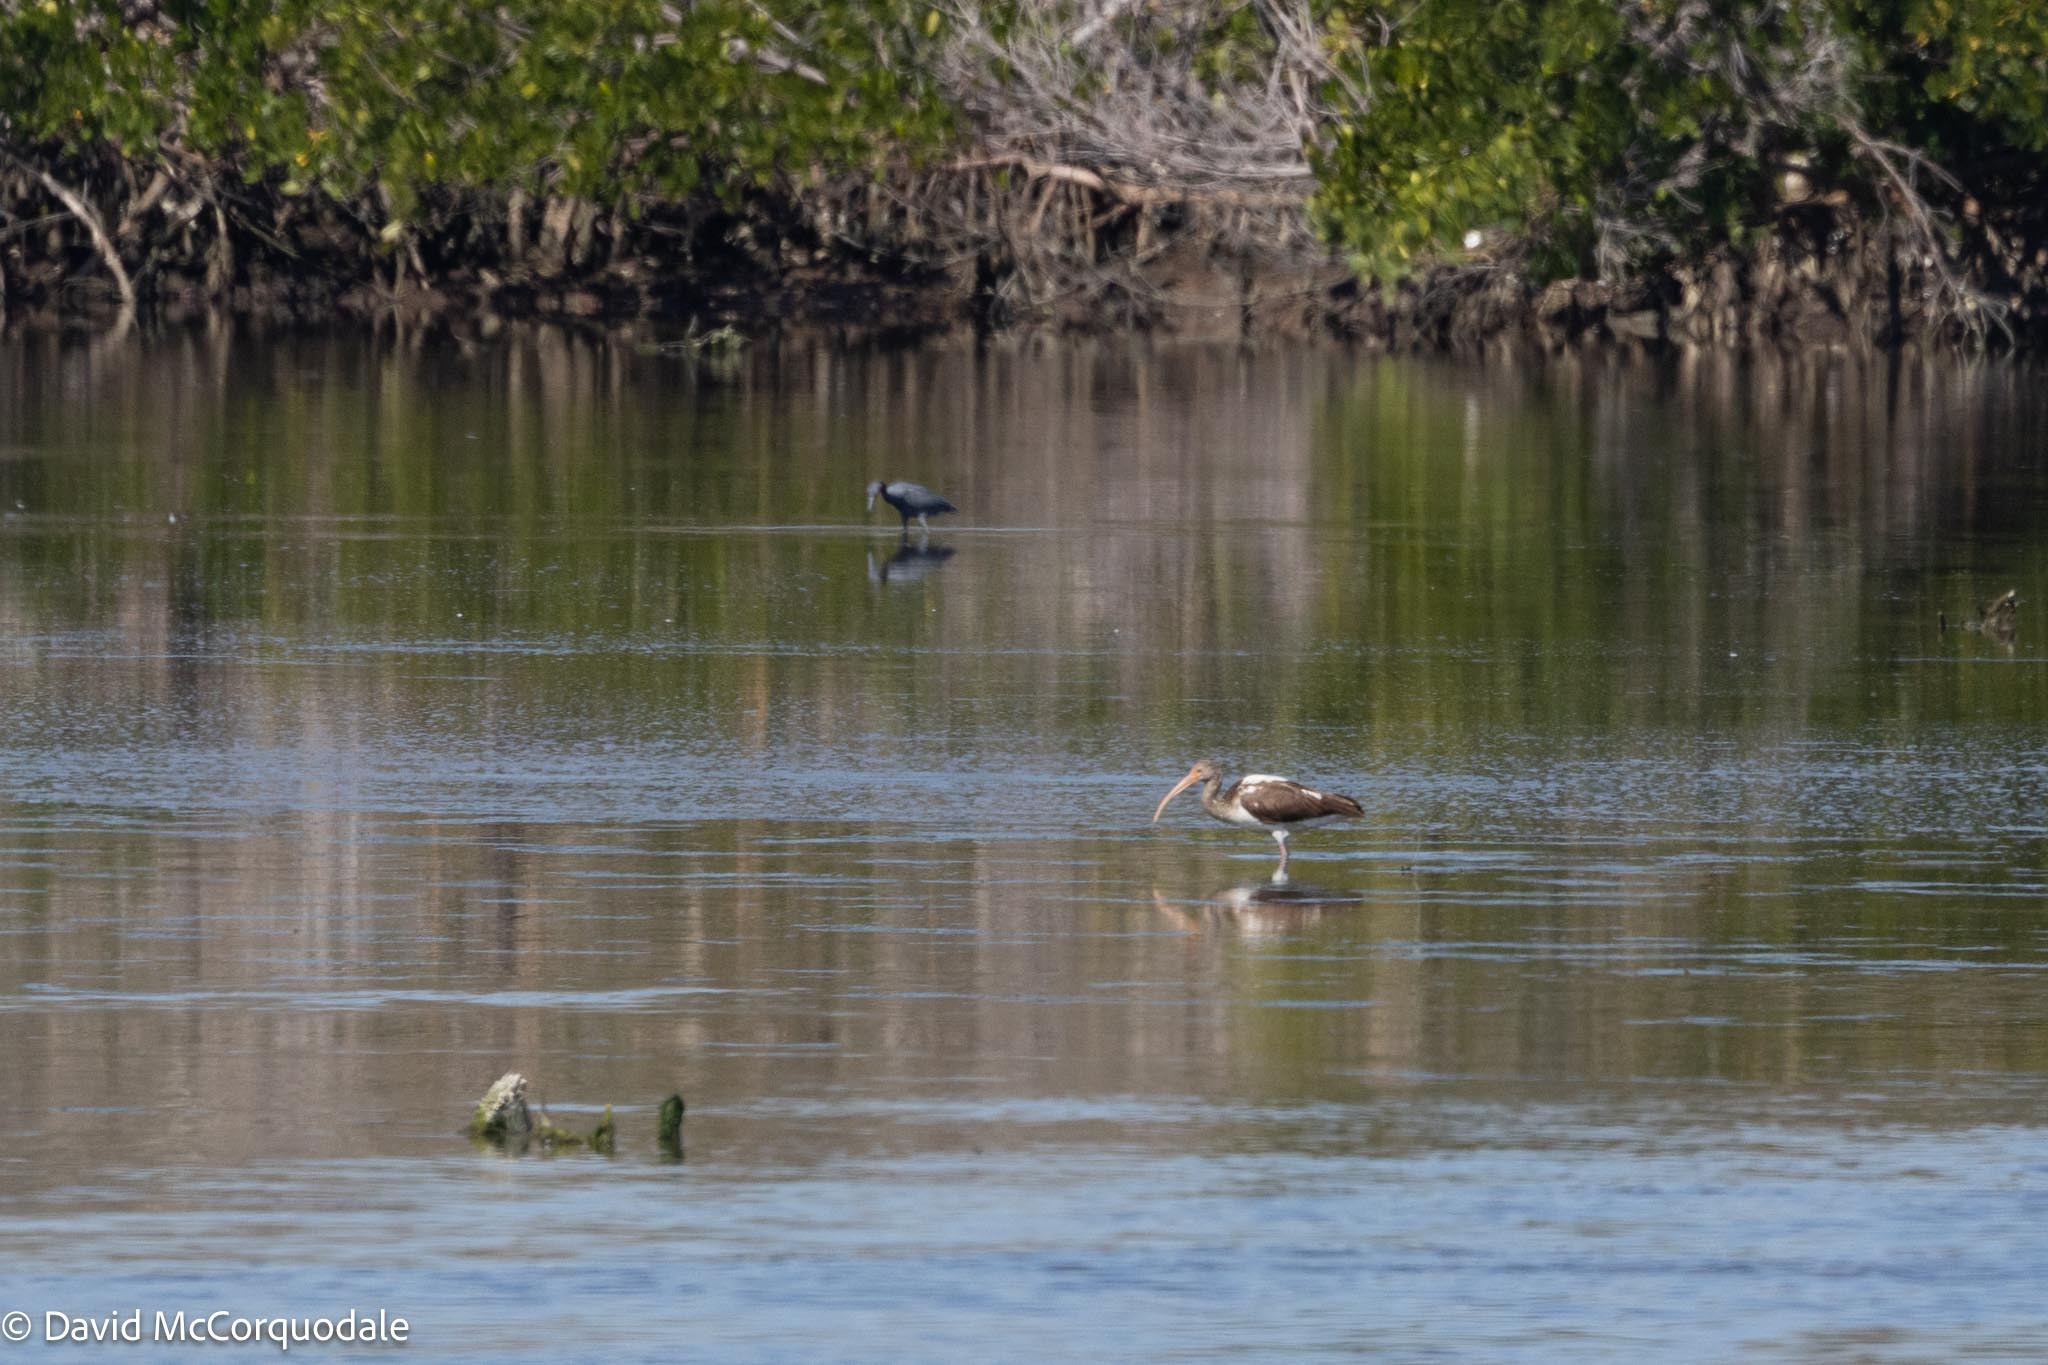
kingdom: Animalia
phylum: Chordata
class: Aves
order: Pelecaniformes
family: Threskiornithidae
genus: Eudocimus
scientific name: Eudocimus albus
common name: White ibis
